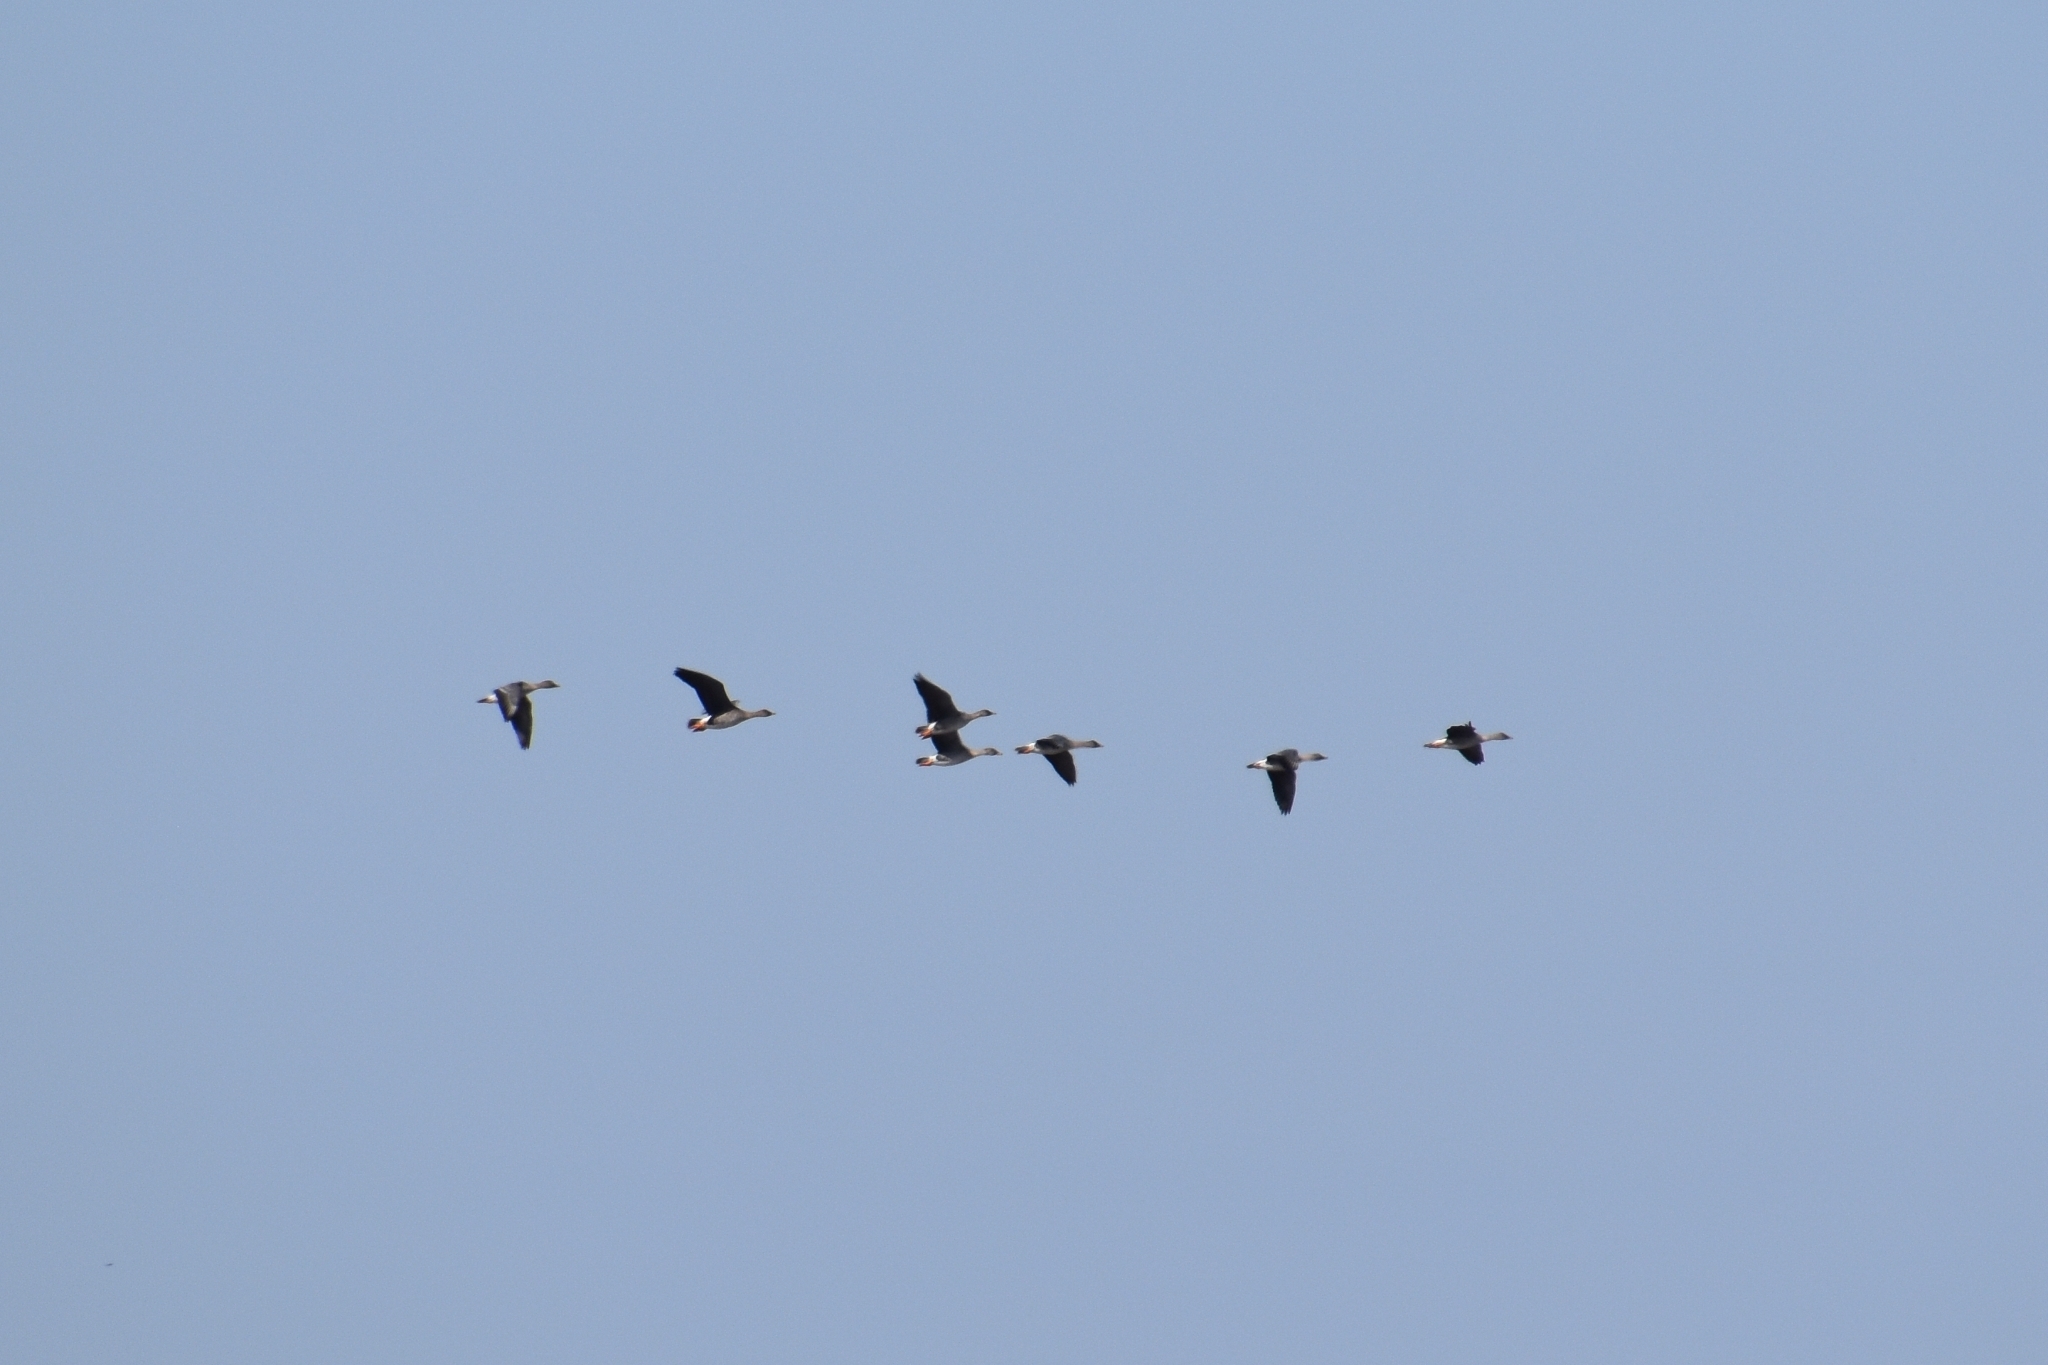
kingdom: Animalia
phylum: Chordata
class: Aves
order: Anseriformes
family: Anatidae
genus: Anser
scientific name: Anser fabalis
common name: Bean goose
